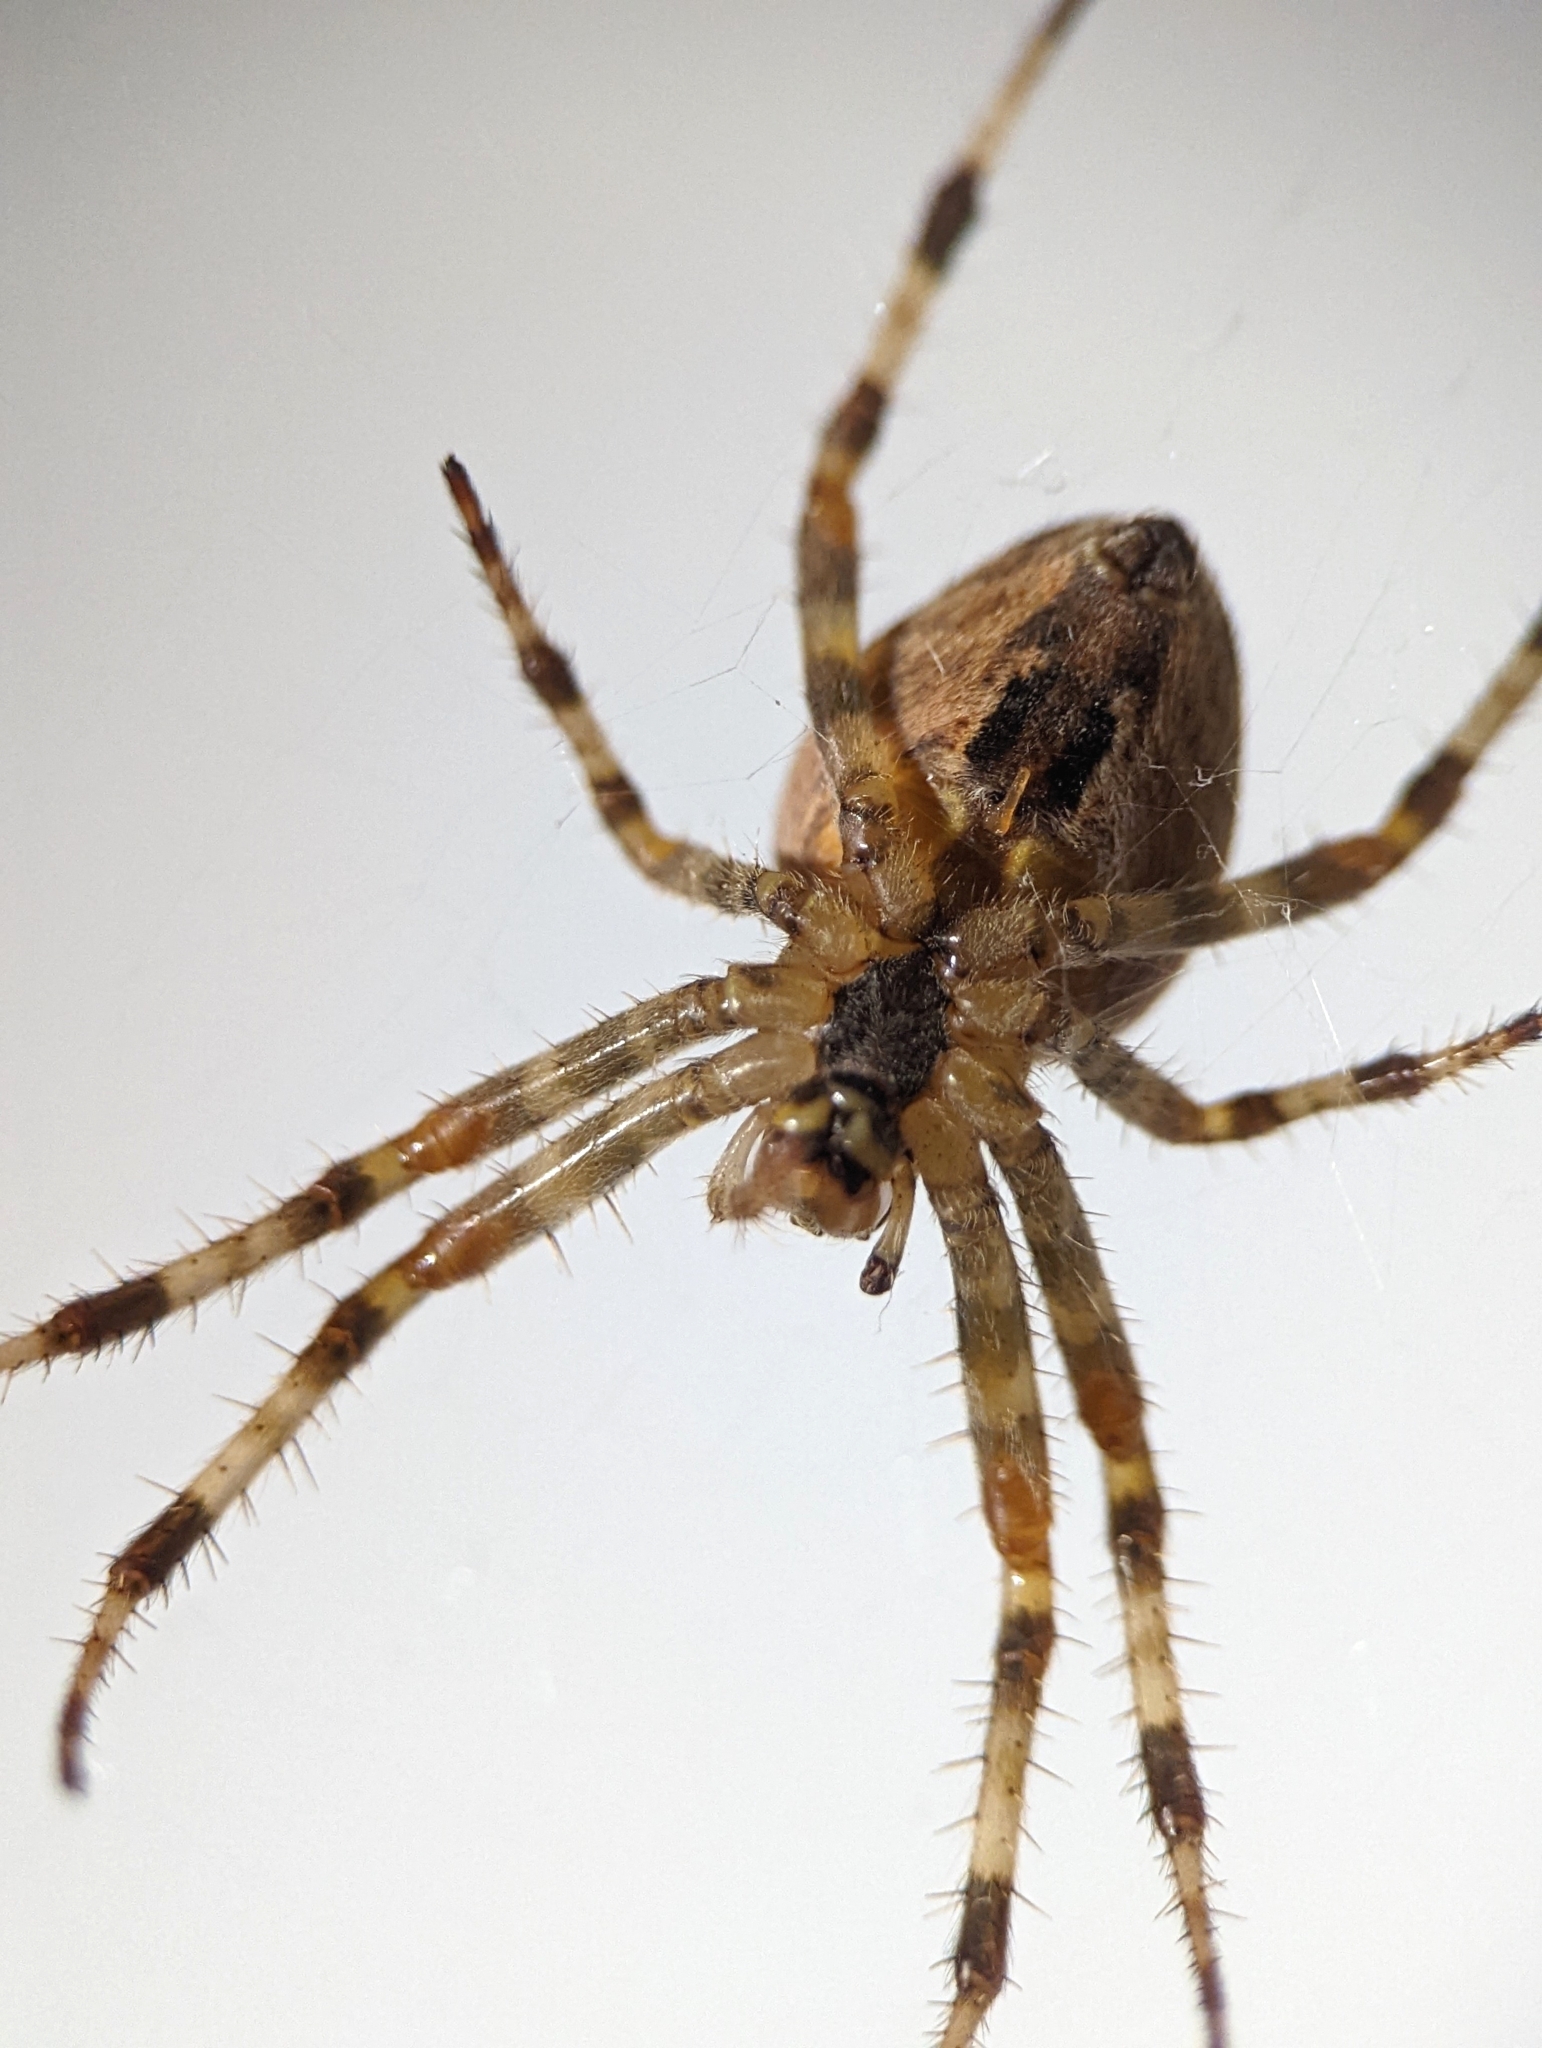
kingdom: Animalia
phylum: Arthropoda
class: Arachnida
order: Araneae
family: Araneidae
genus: Araneus
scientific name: Araneus diadematus
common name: Cross orbweaver
